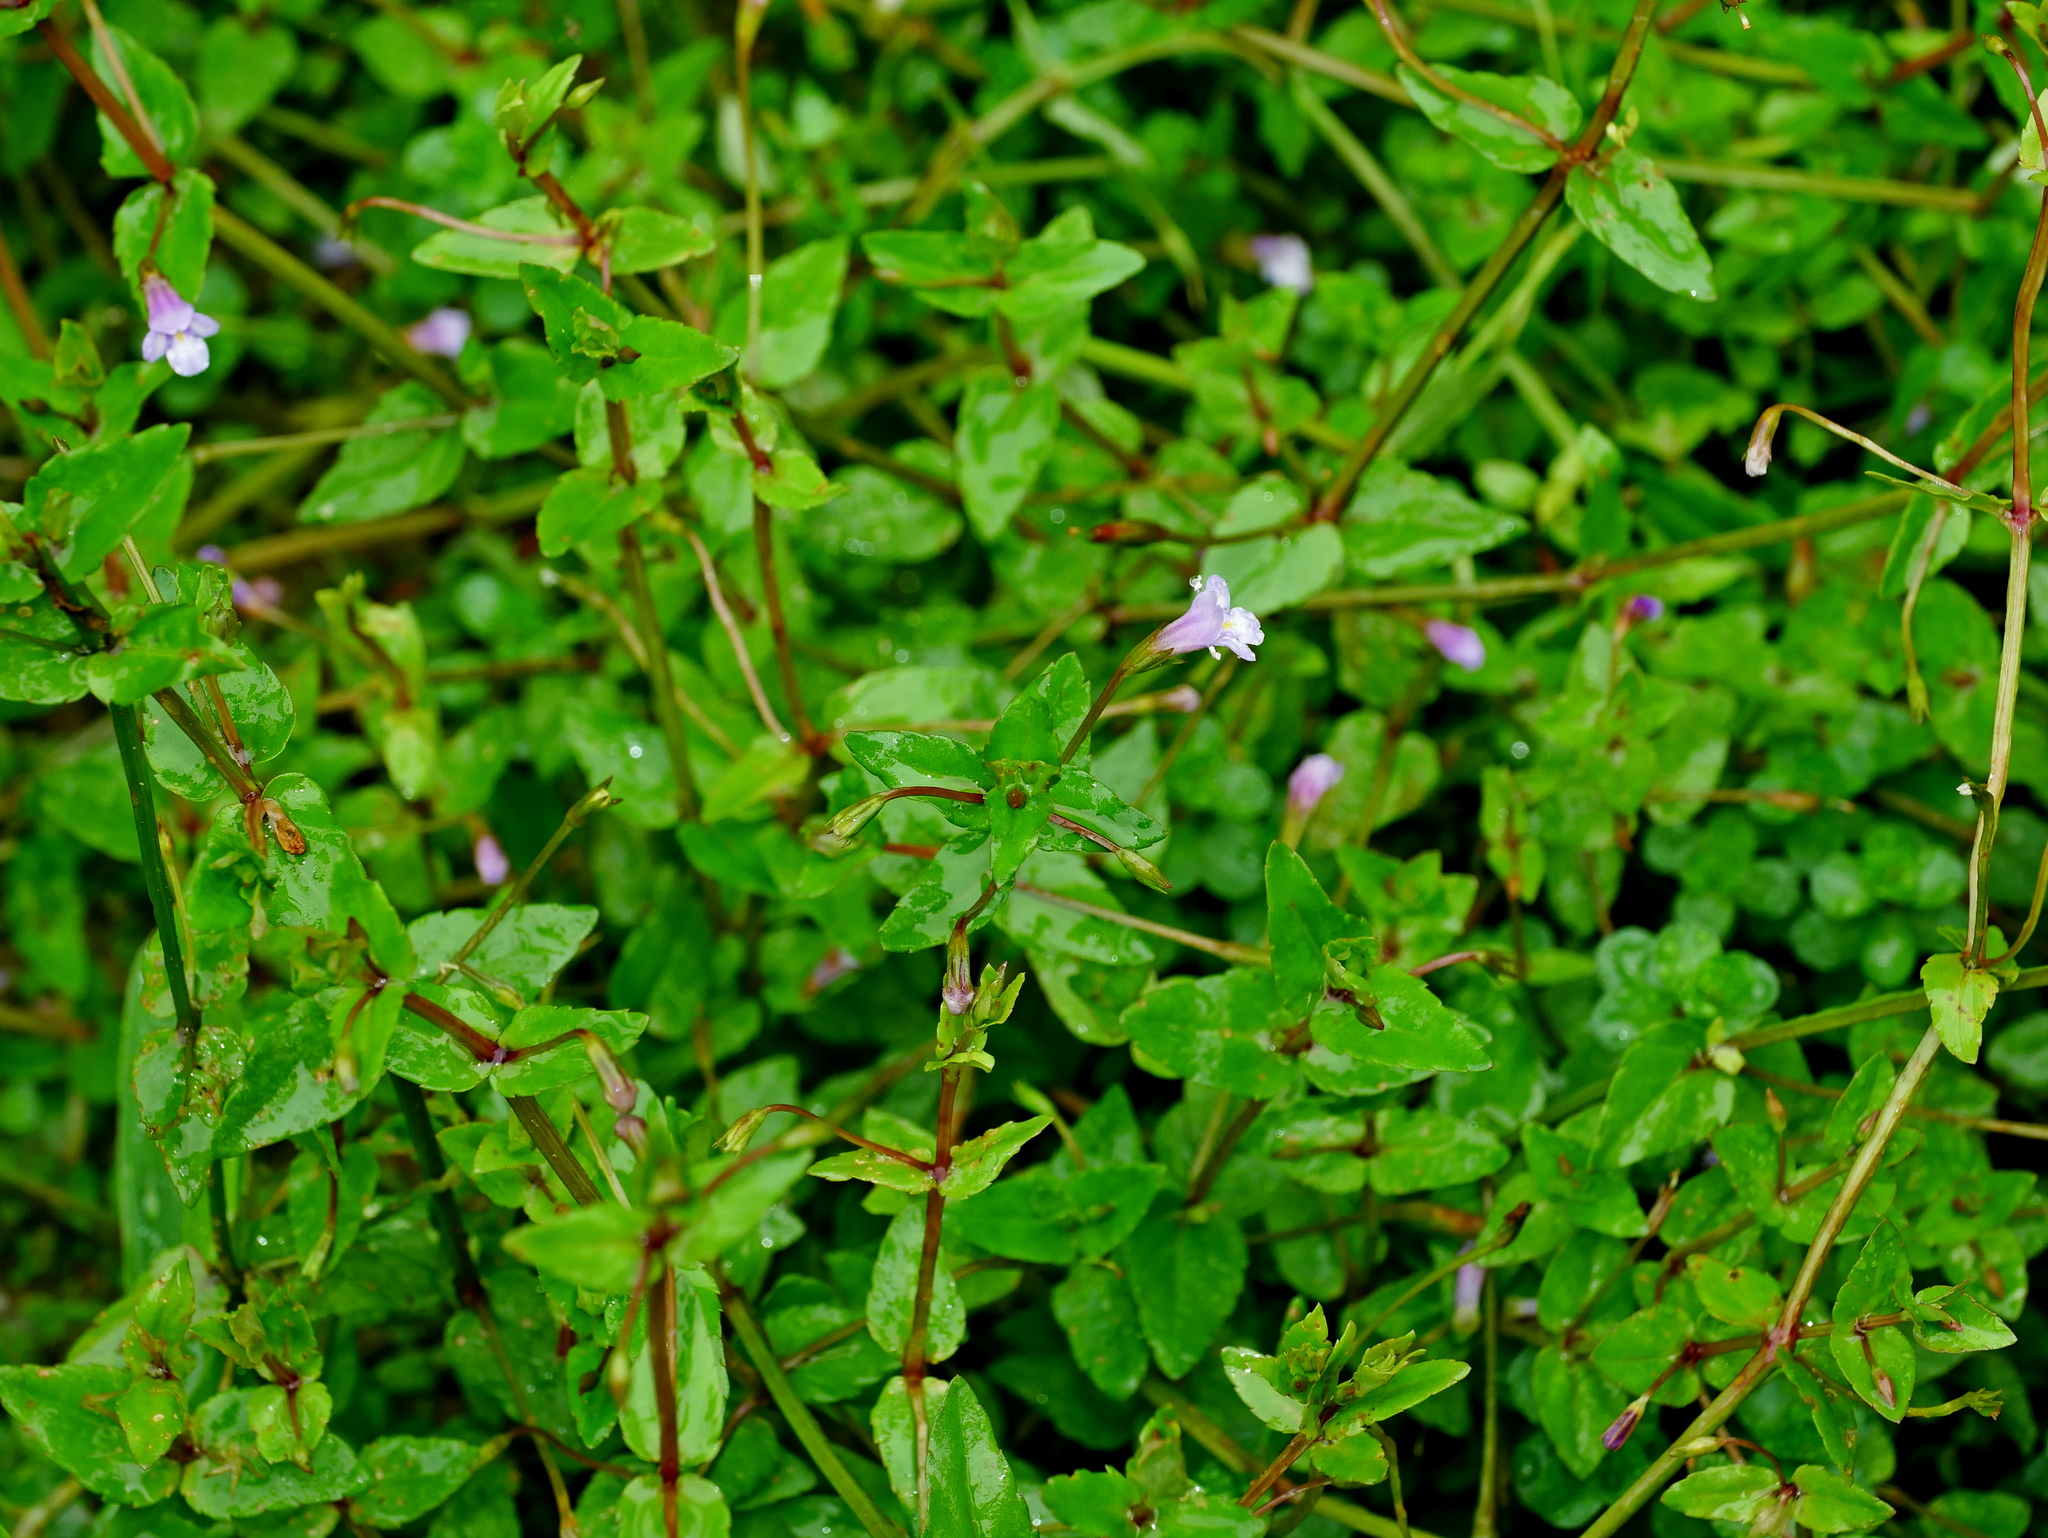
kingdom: Plantae
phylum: Tracheophyta
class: Magnoliopsida
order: Lamiales
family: Linderniaceae
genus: Torenia
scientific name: Torenia anagallis
